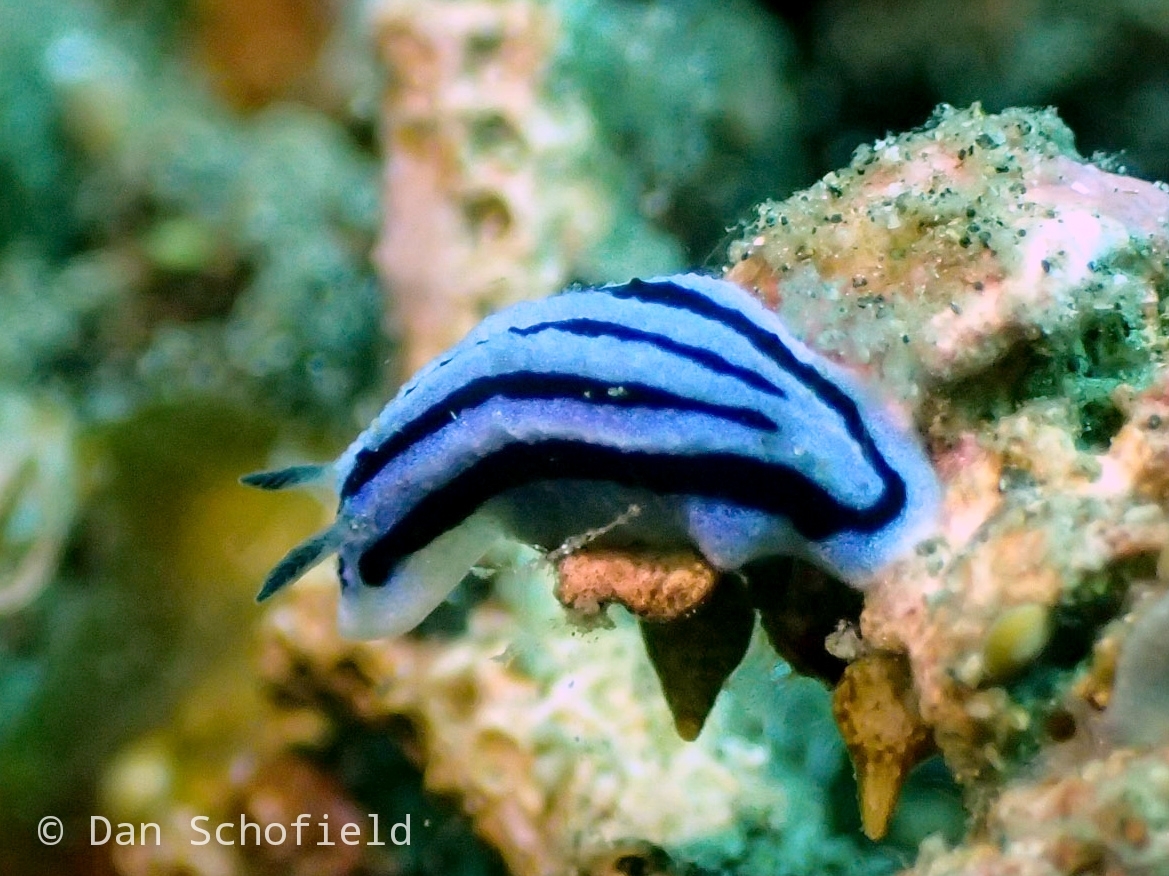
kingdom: Animalia
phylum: Mollusca
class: Gastropoda
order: Nudibranchia
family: Phyllidiidae
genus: Phyllidiopsis
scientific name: Phyllidiopsis annae
